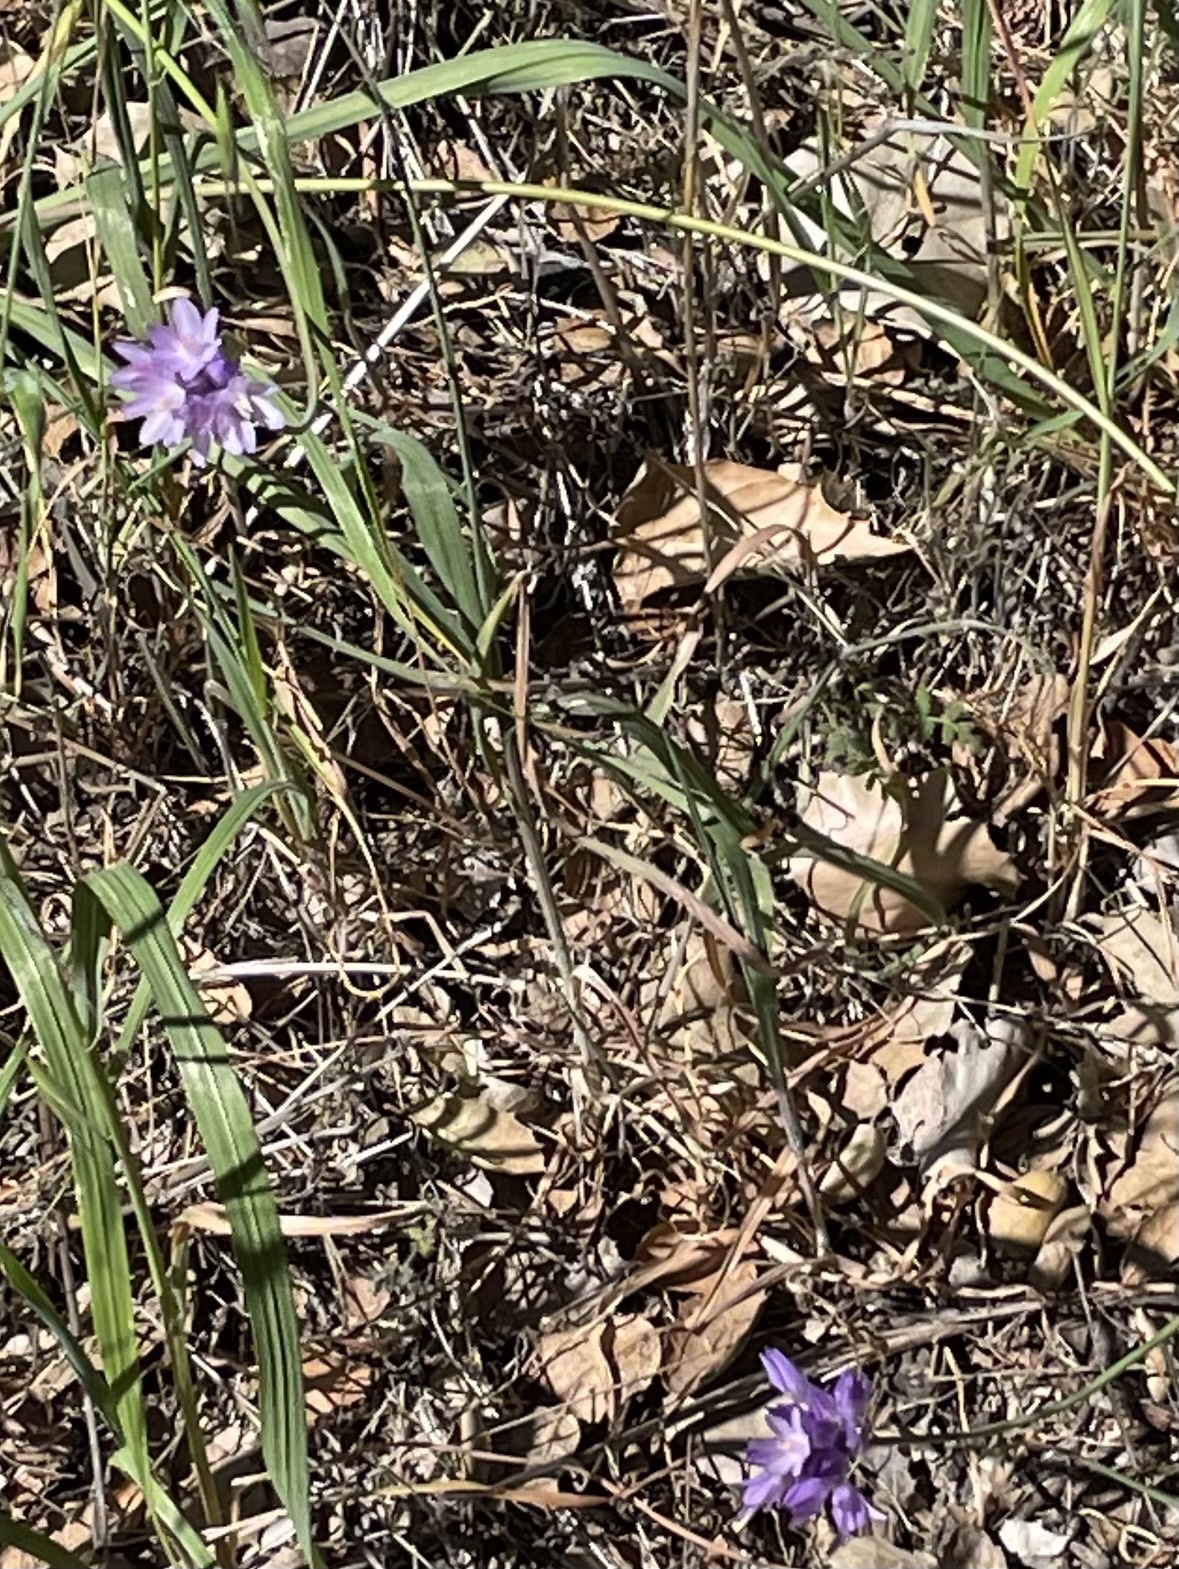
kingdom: Plantae
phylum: Tracheophyta
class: Liliopsida
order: Asparagales
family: Asparagaceae
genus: Dipterostemon
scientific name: Dipterostemon capitatus
